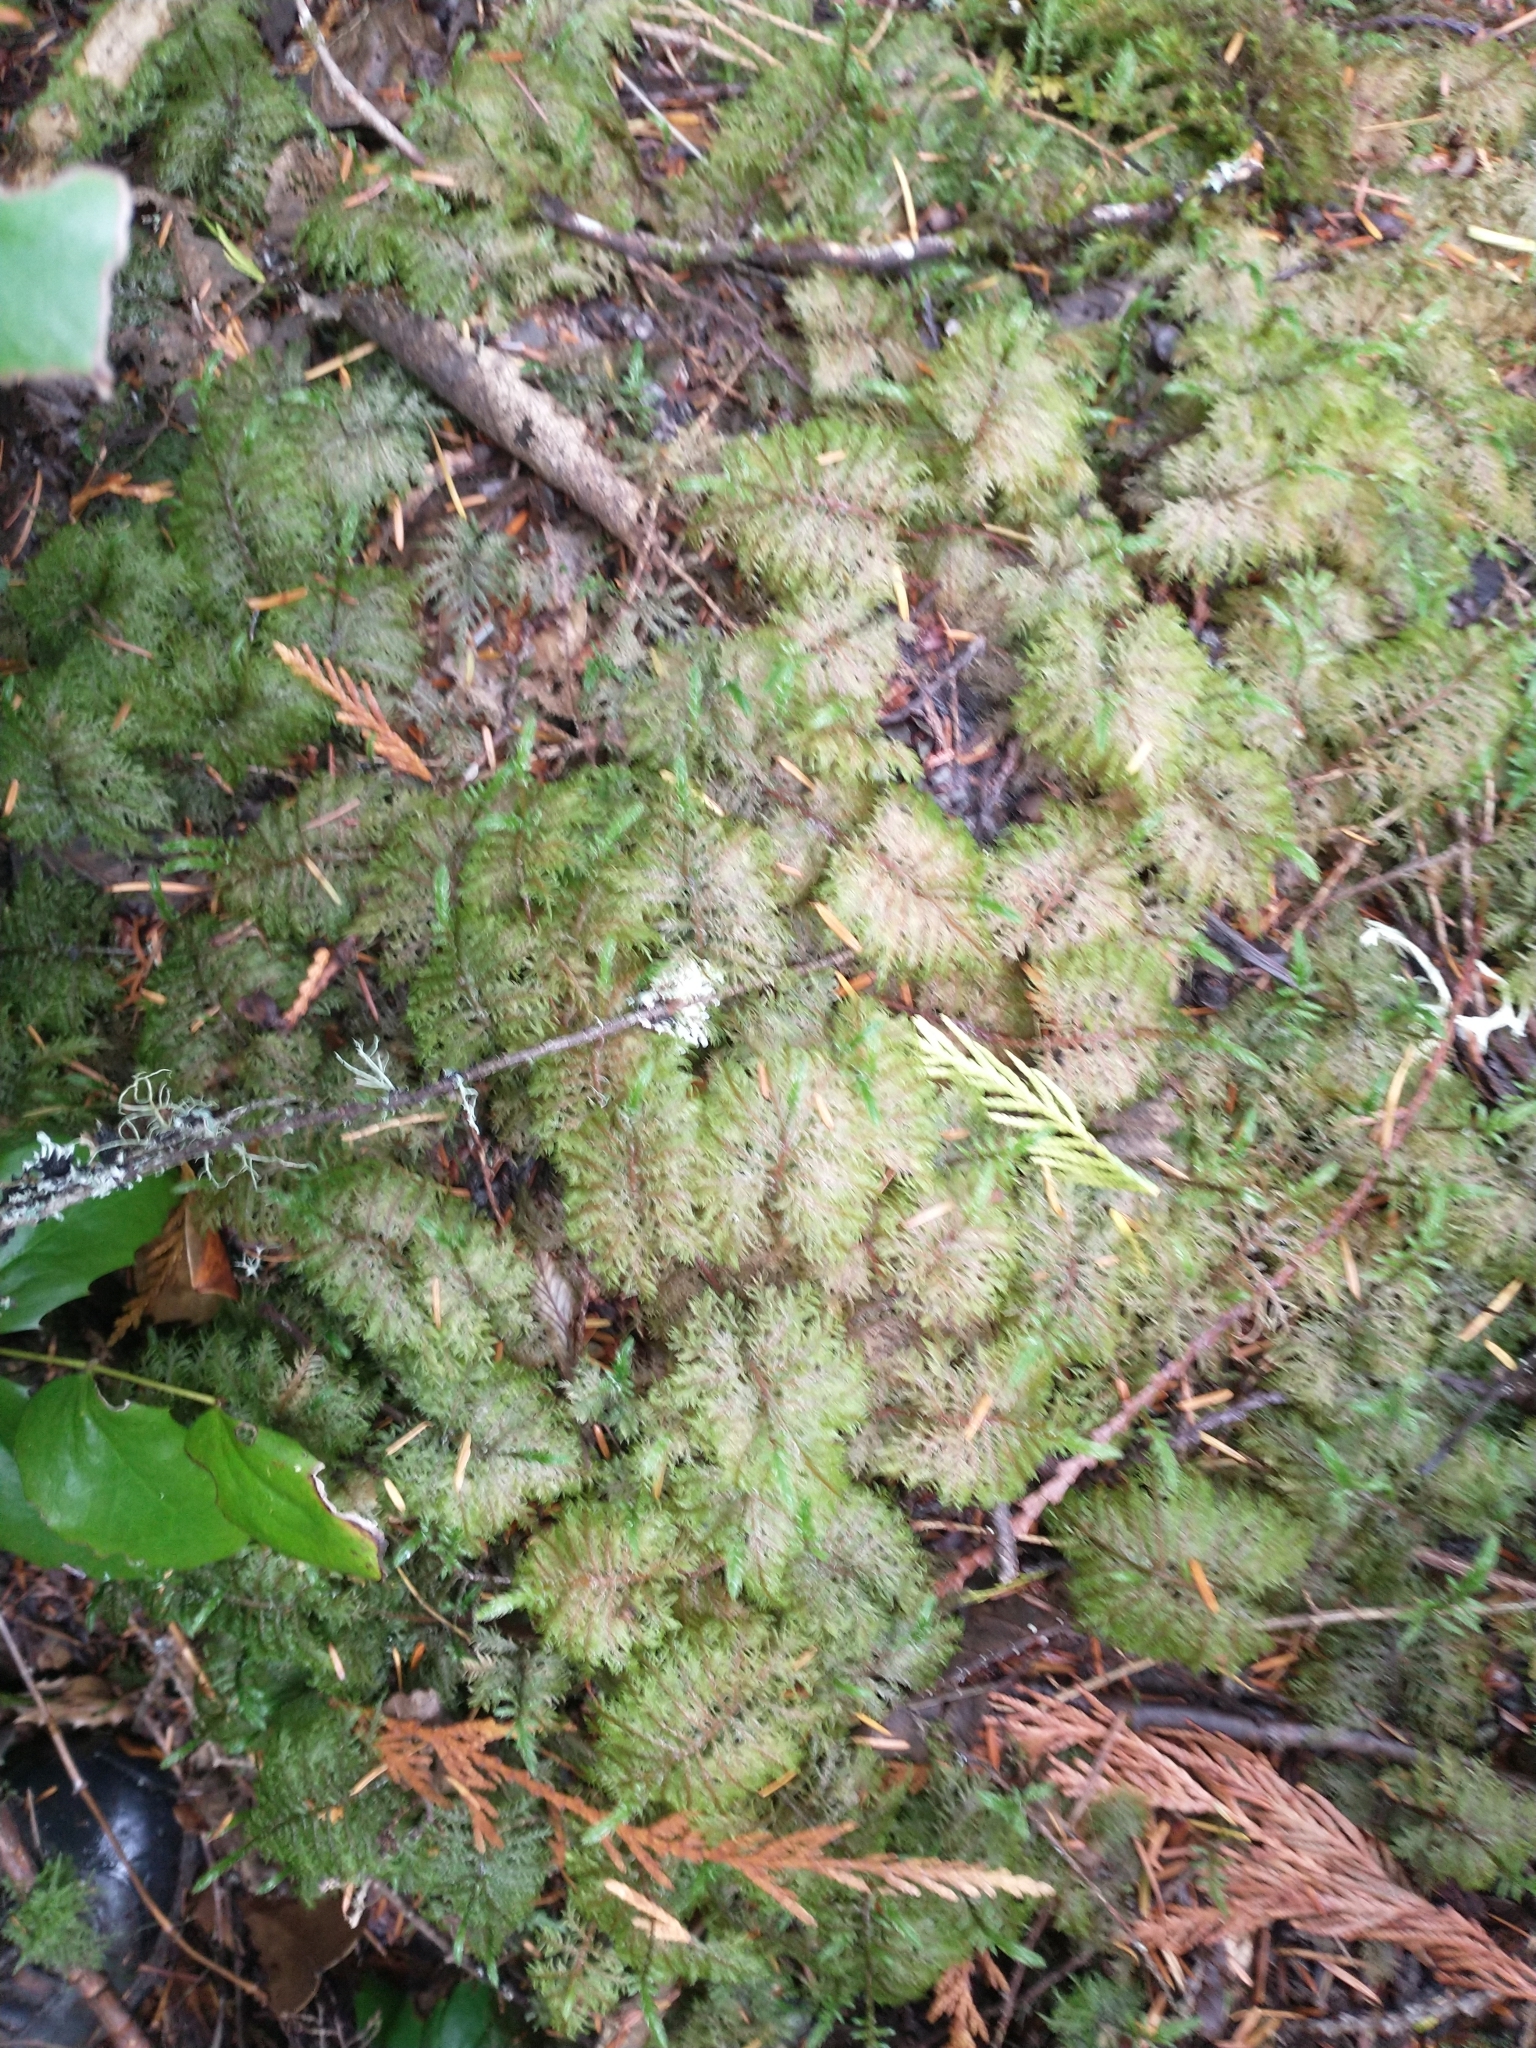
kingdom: Plantae
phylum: Bryophyta
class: Bryopsida
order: Hypnales
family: Hylocomiaceae
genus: Hylocomium
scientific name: Hylocomium splendens
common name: Stairstep moss
